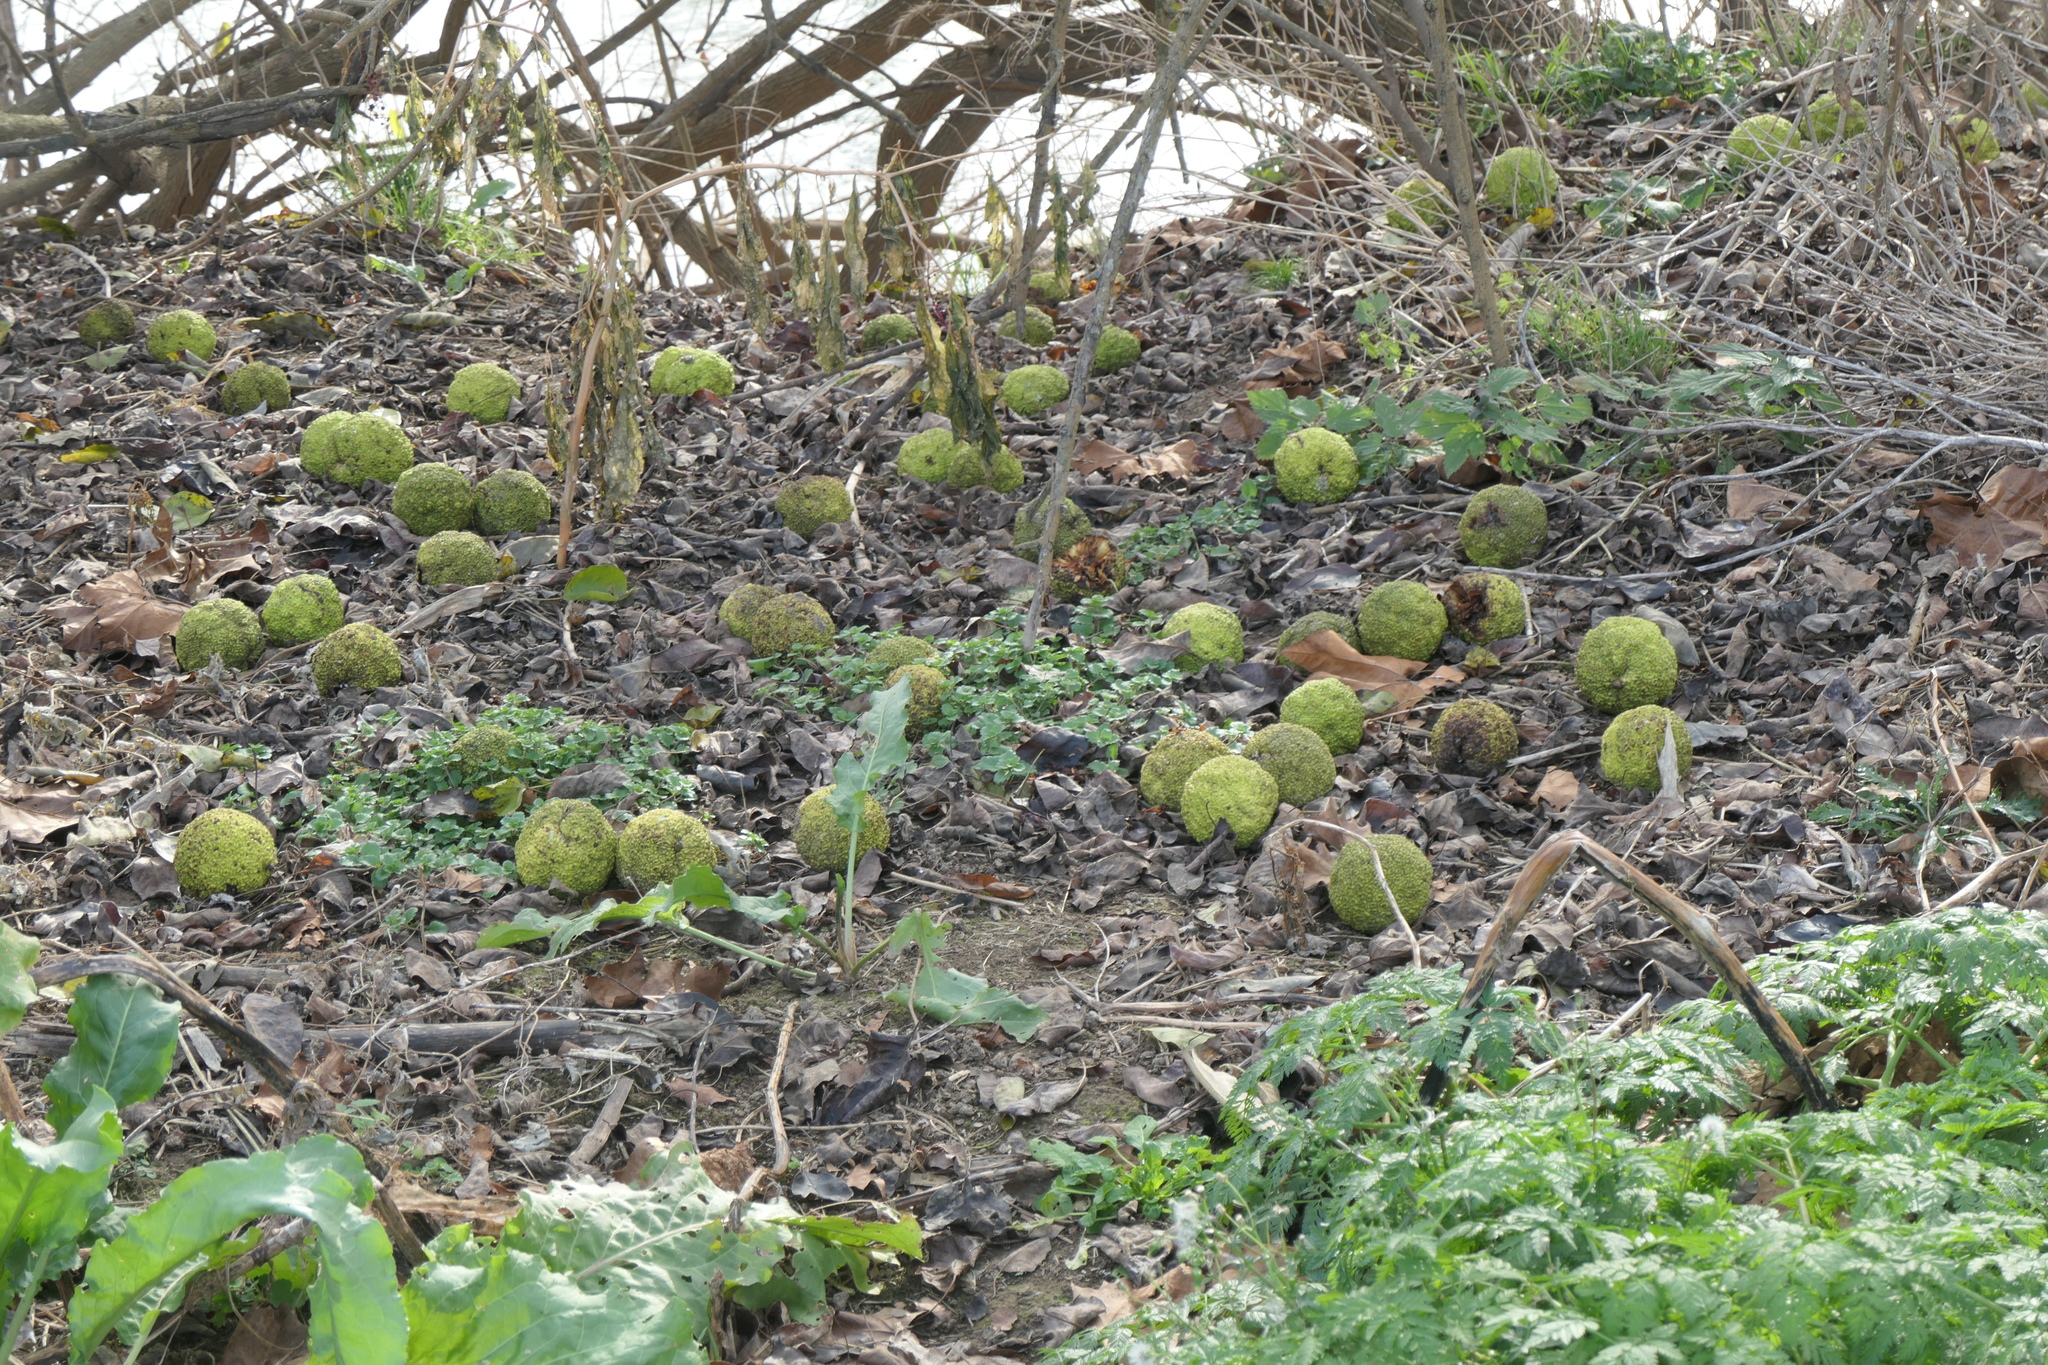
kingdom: Plantae
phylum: Tracheophyta
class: Magnoliopsida
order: Rosales
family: Moraceae
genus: Maclura
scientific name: Maclura pomifera
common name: Osage-orange
